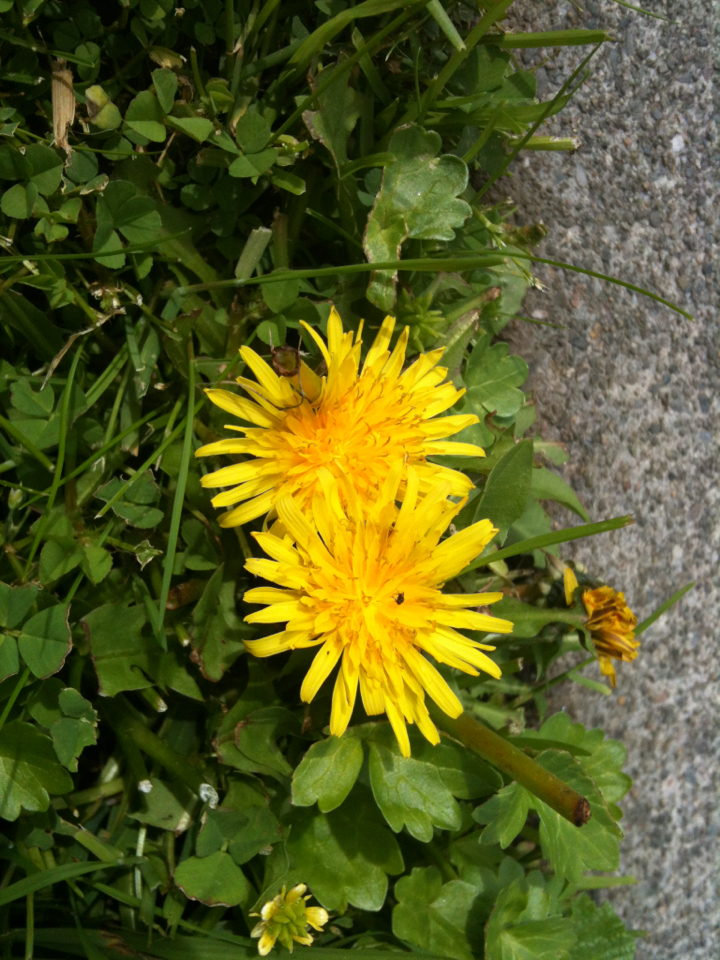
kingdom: Plantae
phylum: Tracheophyta
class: Magnoliopsida
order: Asterales
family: Asteraceae
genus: Taraxacum
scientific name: Taraxacum officinale
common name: Common dandelion
